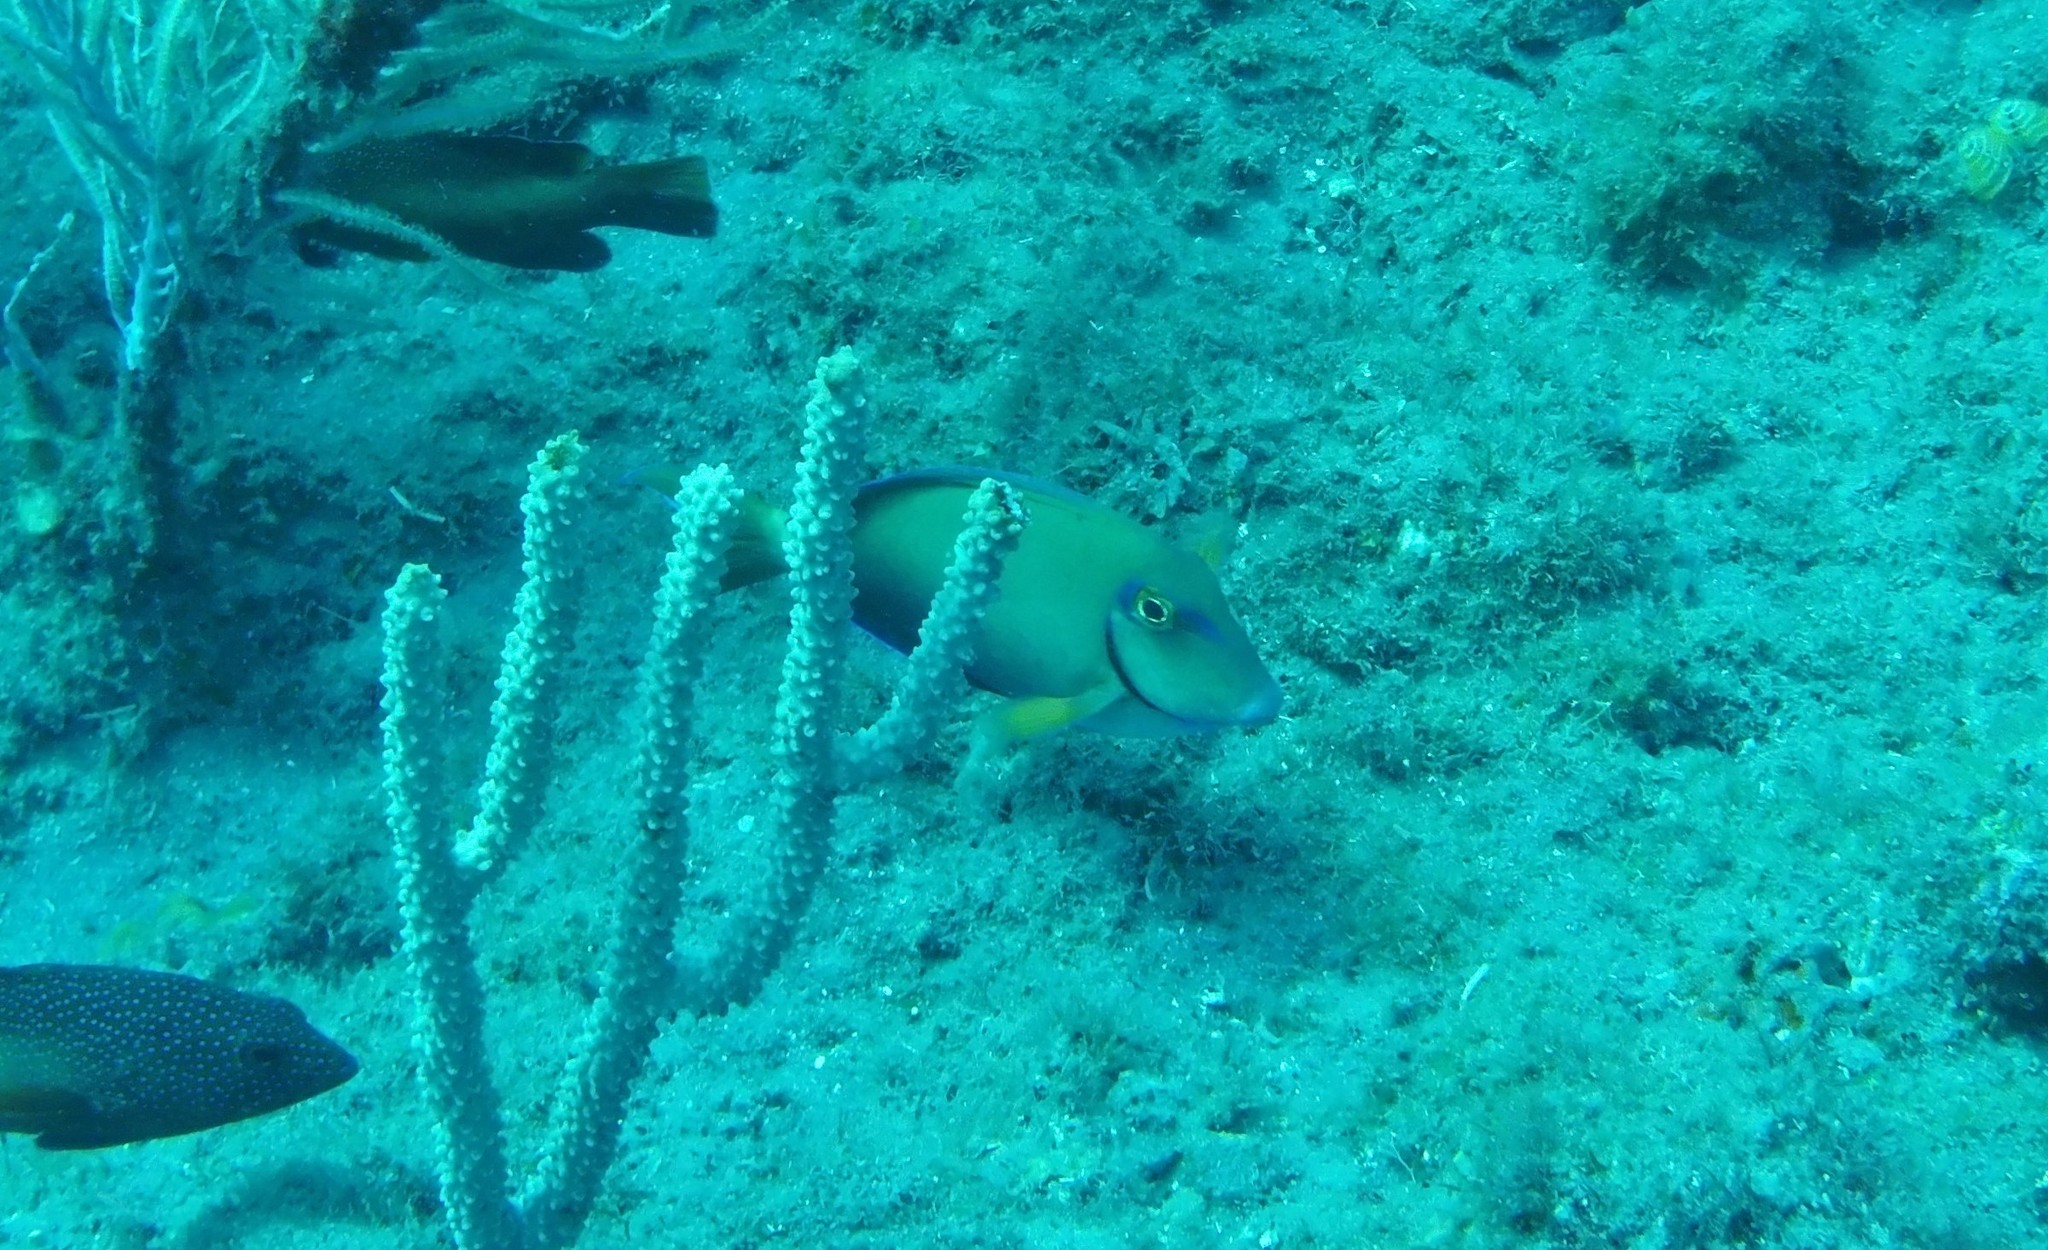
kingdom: Animalia
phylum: Chordata
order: Perciformes
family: Acanthuridae
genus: Acanthurus
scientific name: Acanthurus bahianus
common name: Ocean surgeon
